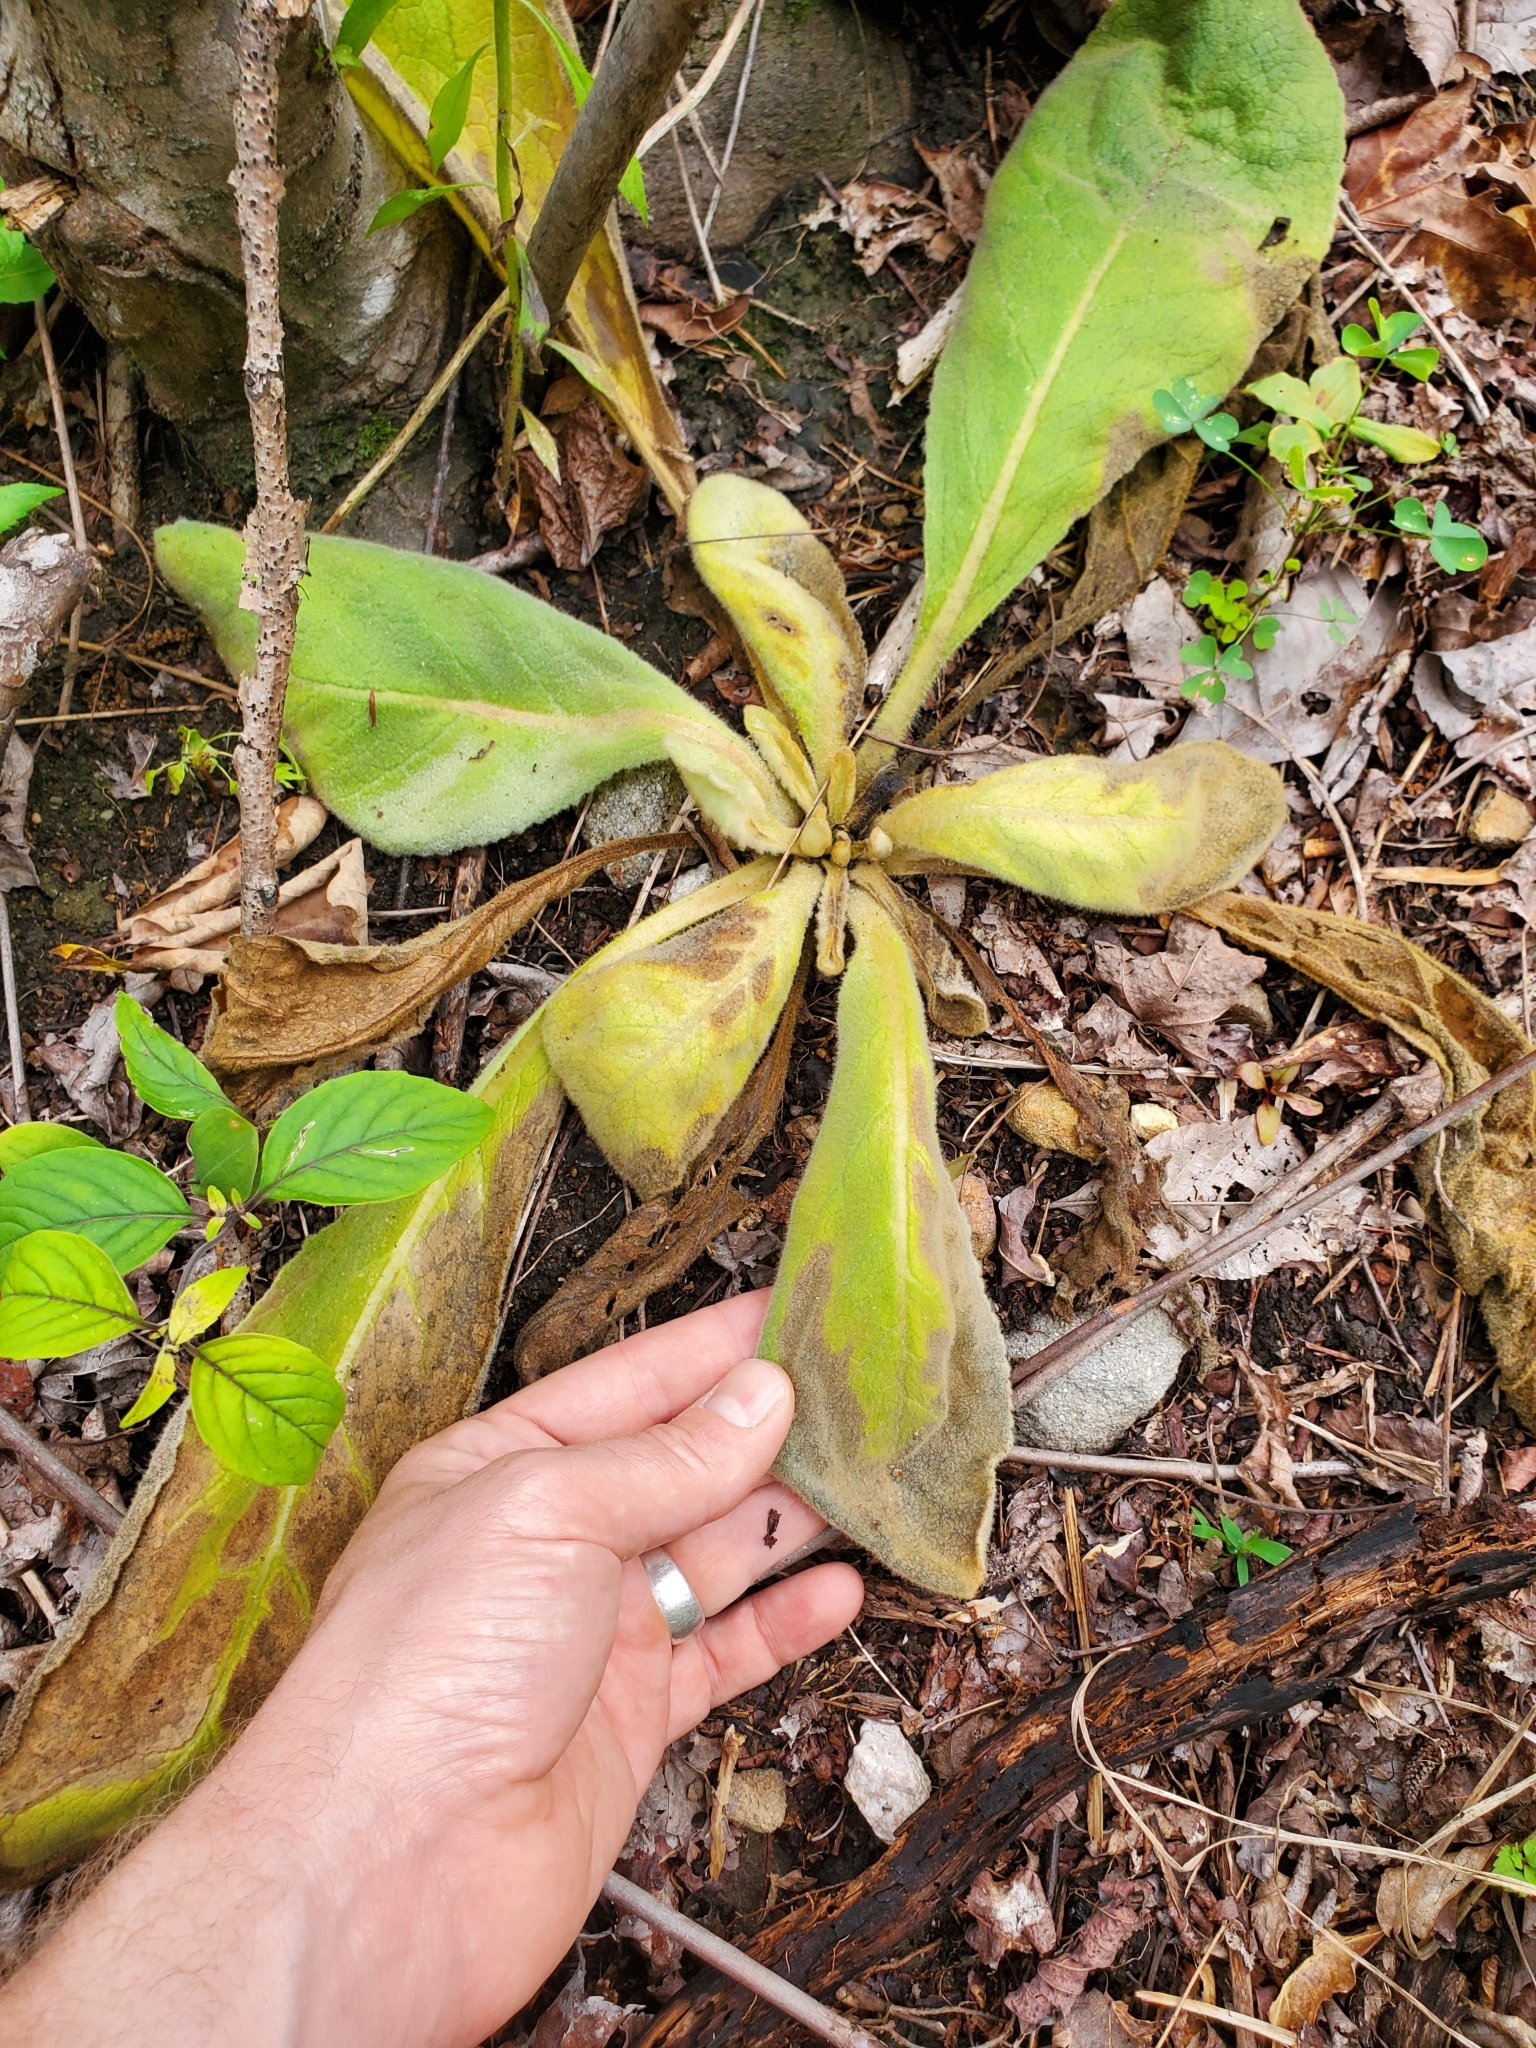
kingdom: Plantae
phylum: Tracheophyta
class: Magnoliopsida
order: Lamiales
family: Scrophulariaceae
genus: Verbascum
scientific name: Verbascum thapsus
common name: Common mullein
